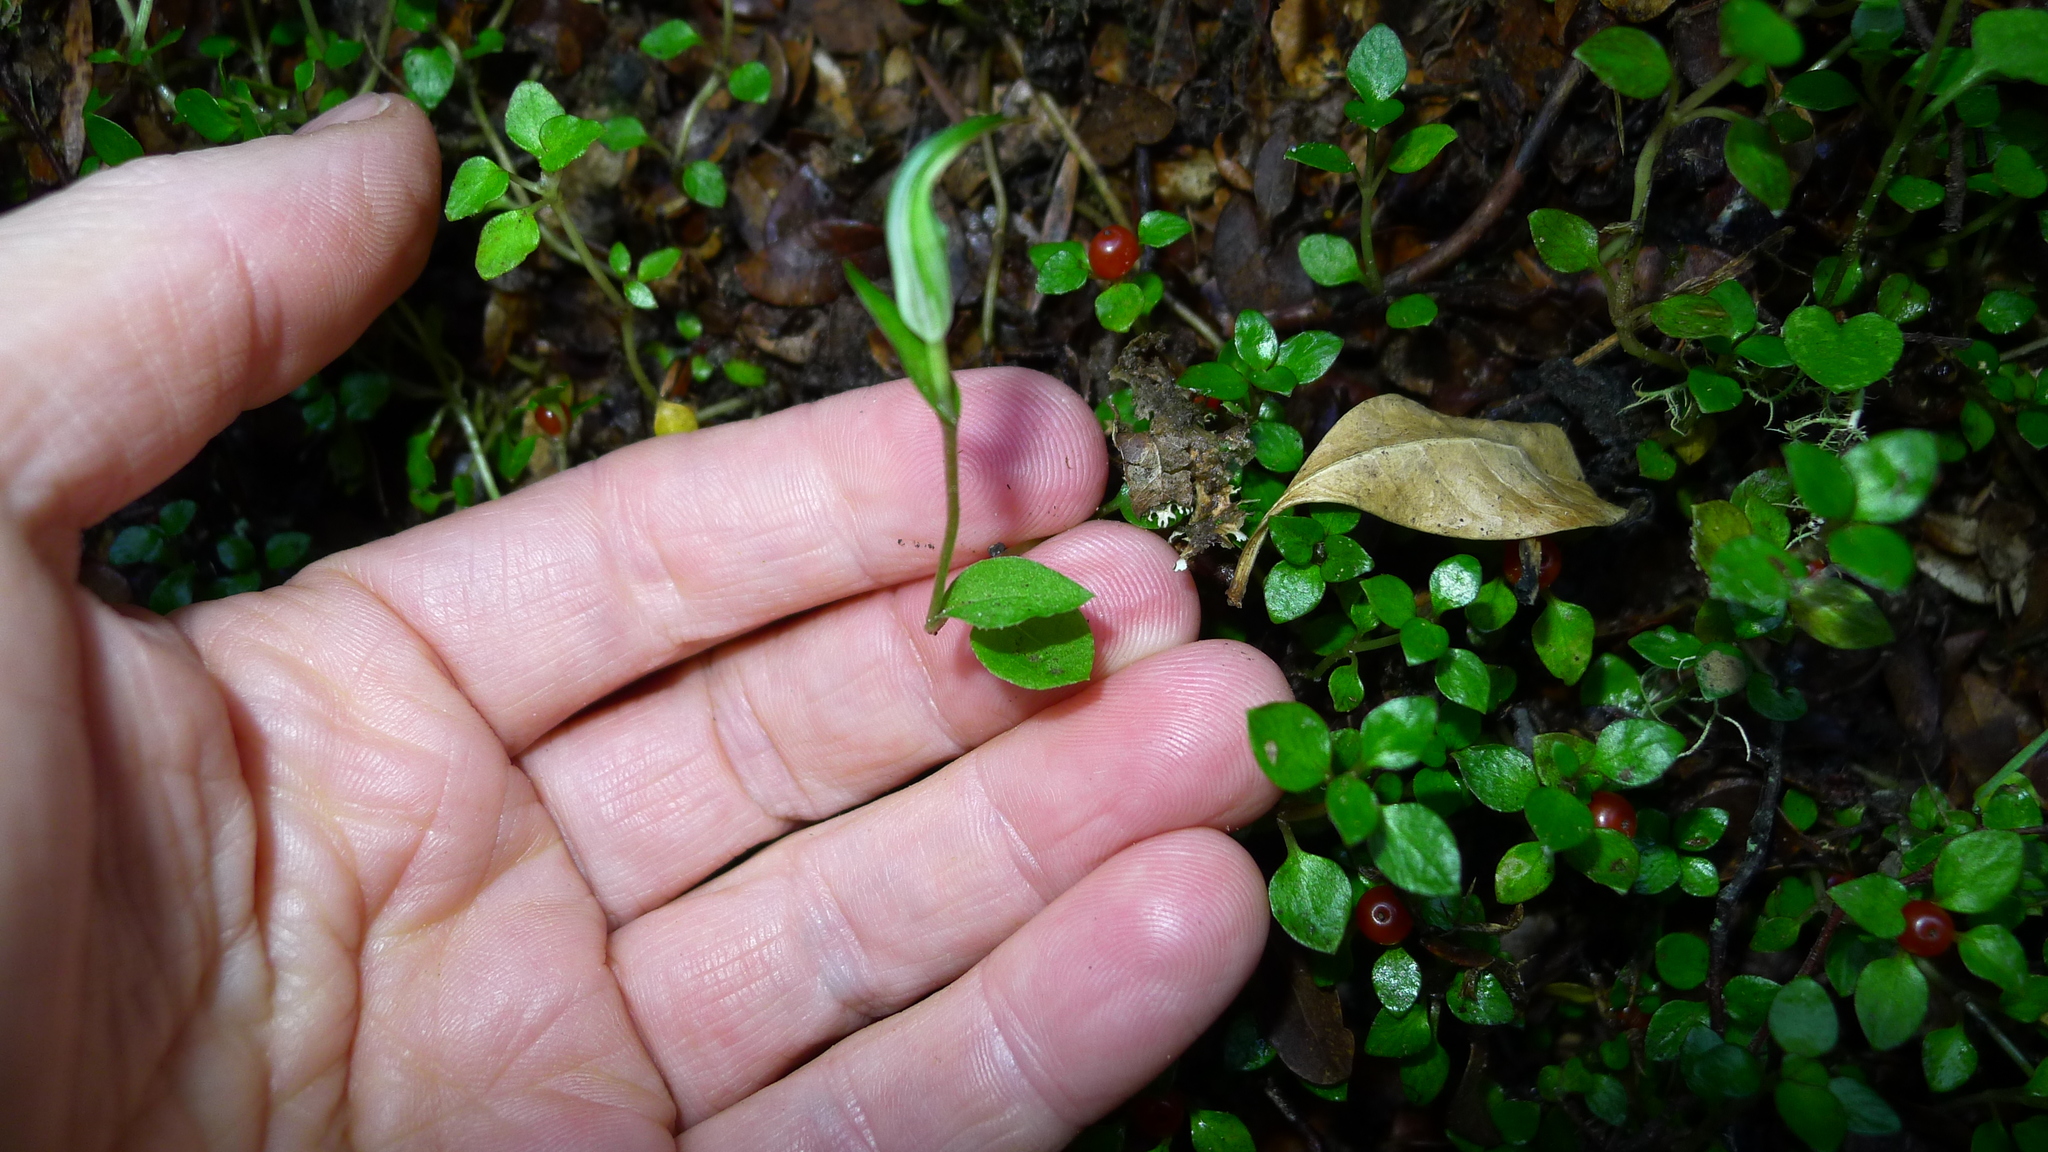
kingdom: Plantae
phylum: Tracheophyta
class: Liliopsida
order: Asparagales
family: Orchidaceae
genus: Pterostylis
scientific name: Pterostylis alobula
